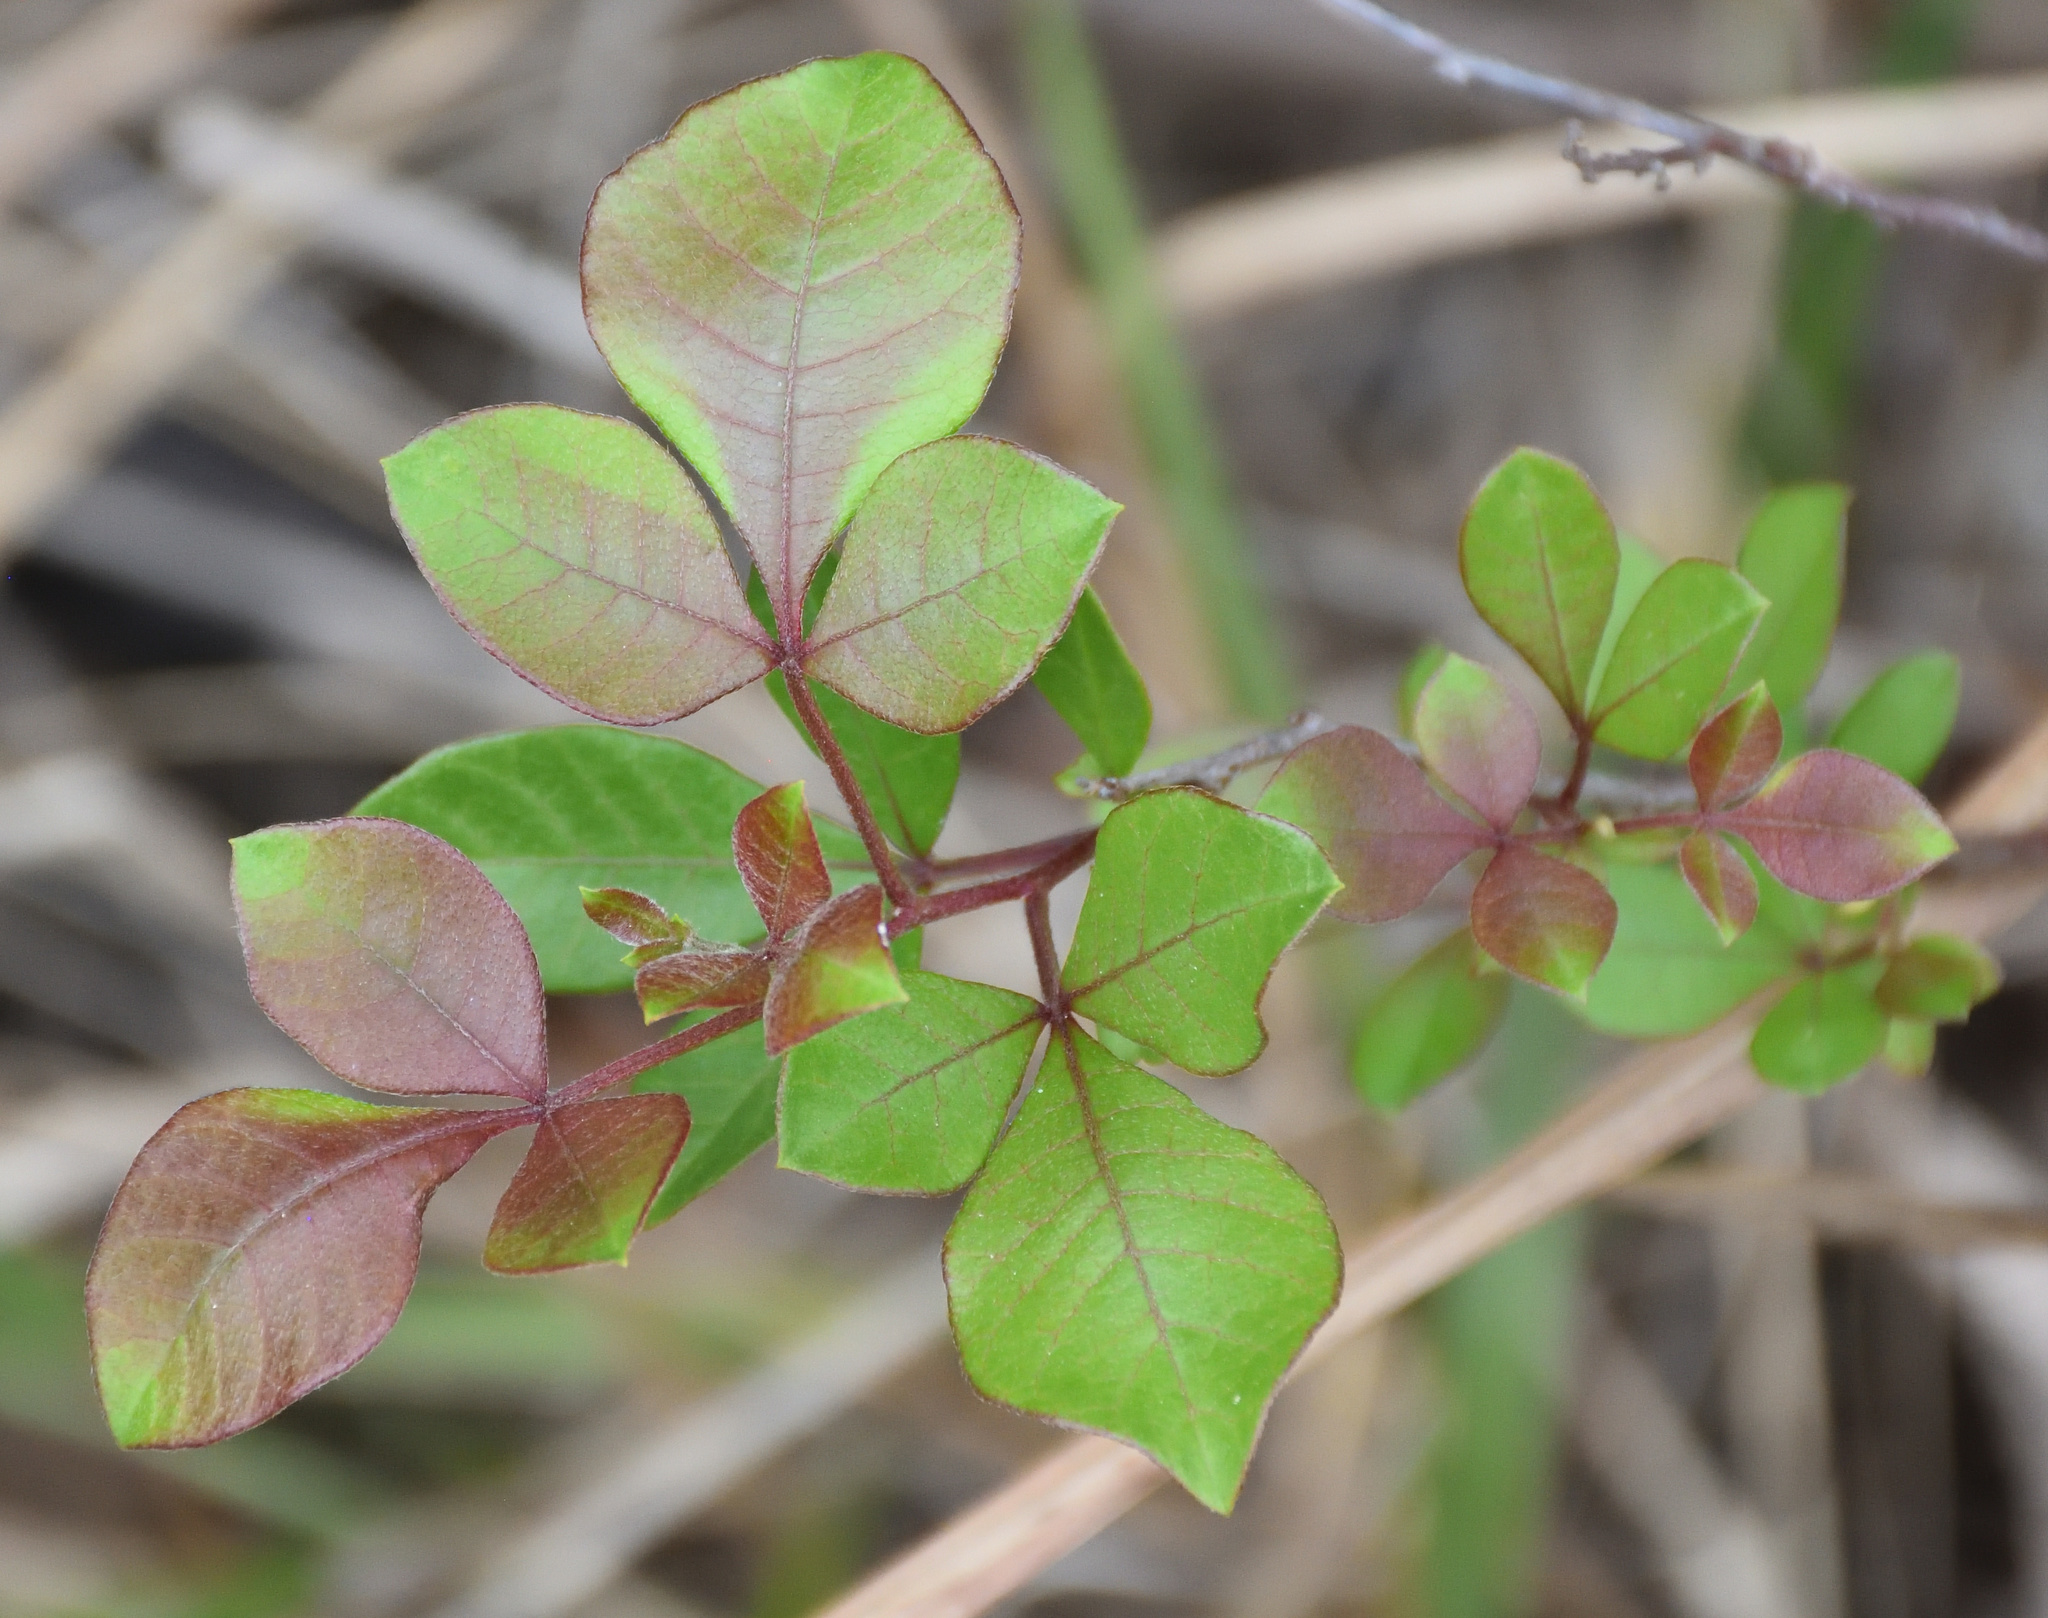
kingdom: Plantae
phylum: Tracheophyta
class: Magnoliopsida
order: Sapindales
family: Anacardiaceae
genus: Searsia
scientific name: Searsia pyroides
